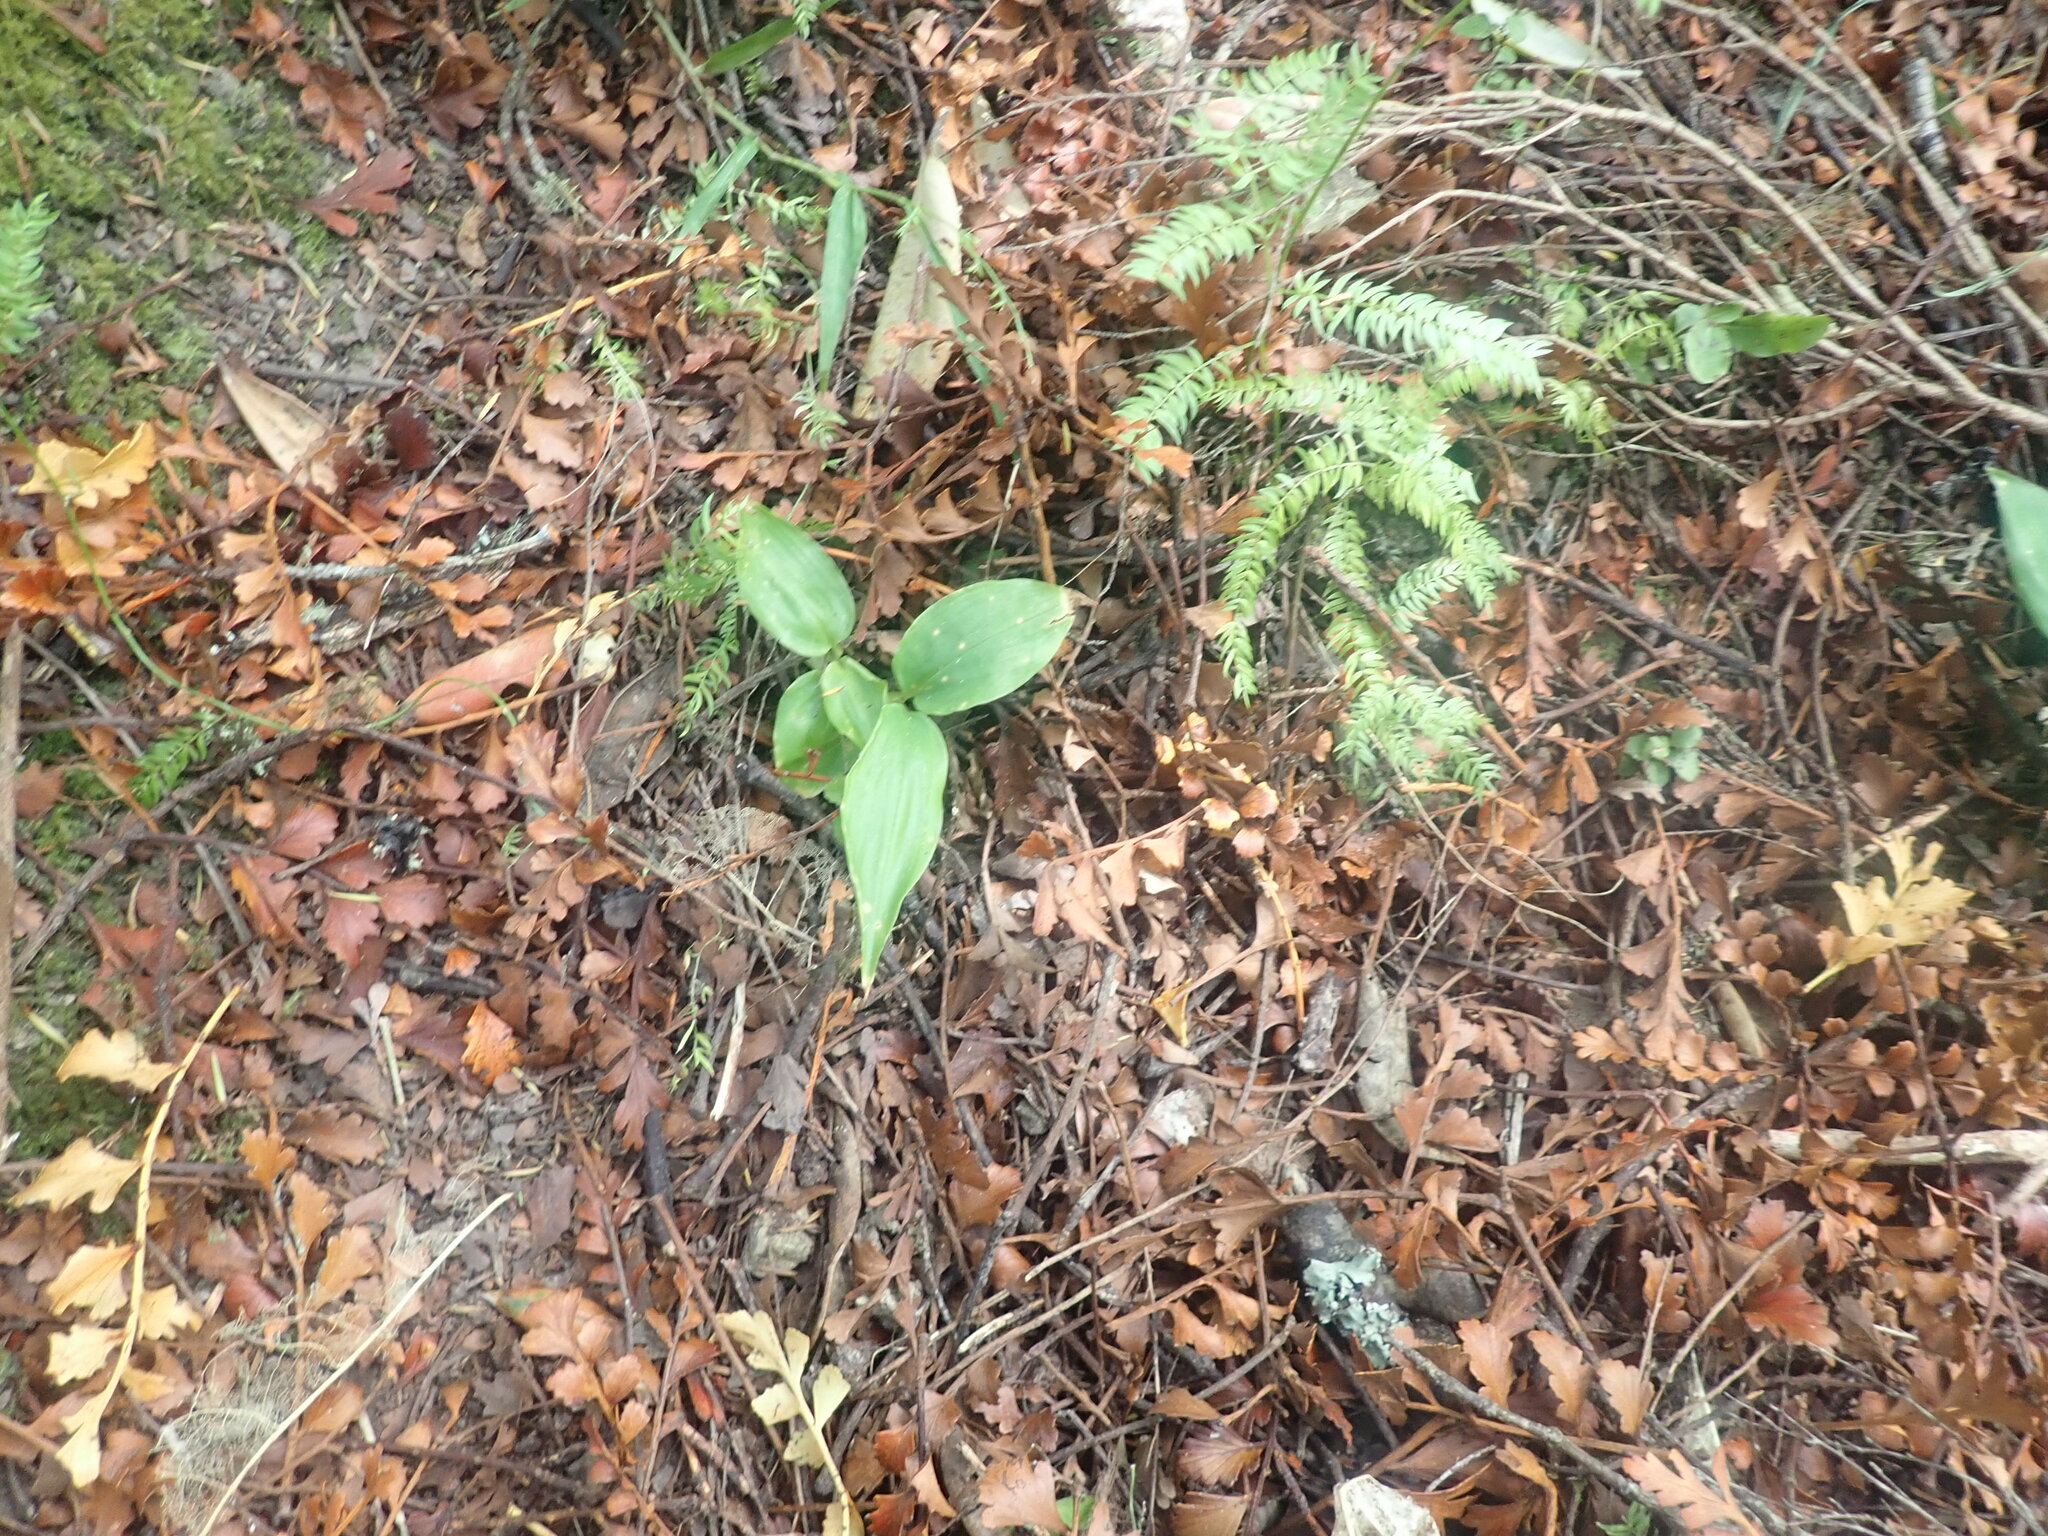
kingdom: Plantae
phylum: Tracheophyta
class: Liliopsida
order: Zingiberales
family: Zingiberaceae
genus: Hedychium
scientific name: Hedychium gardnerianum
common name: Himalayan ginger
